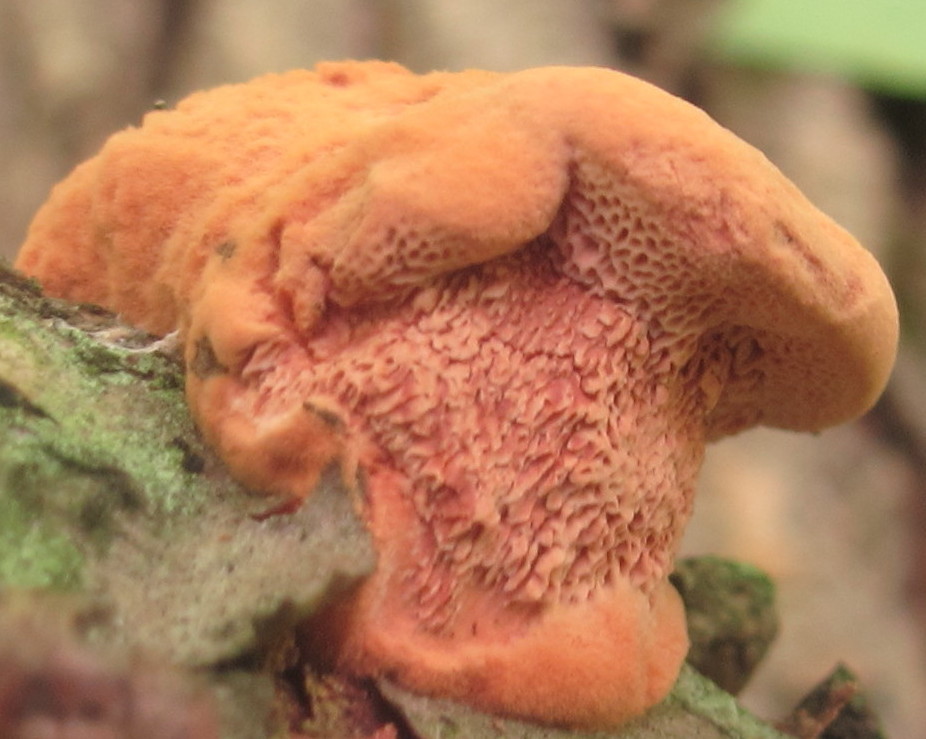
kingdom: Fungi
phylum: Basidiomycota
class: Agaricomycetes
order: Polyporales
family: Phanerochaetaceae
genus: Hapalopilus
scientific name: Hapalopilus rutilans
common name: Tender nesting polypore
